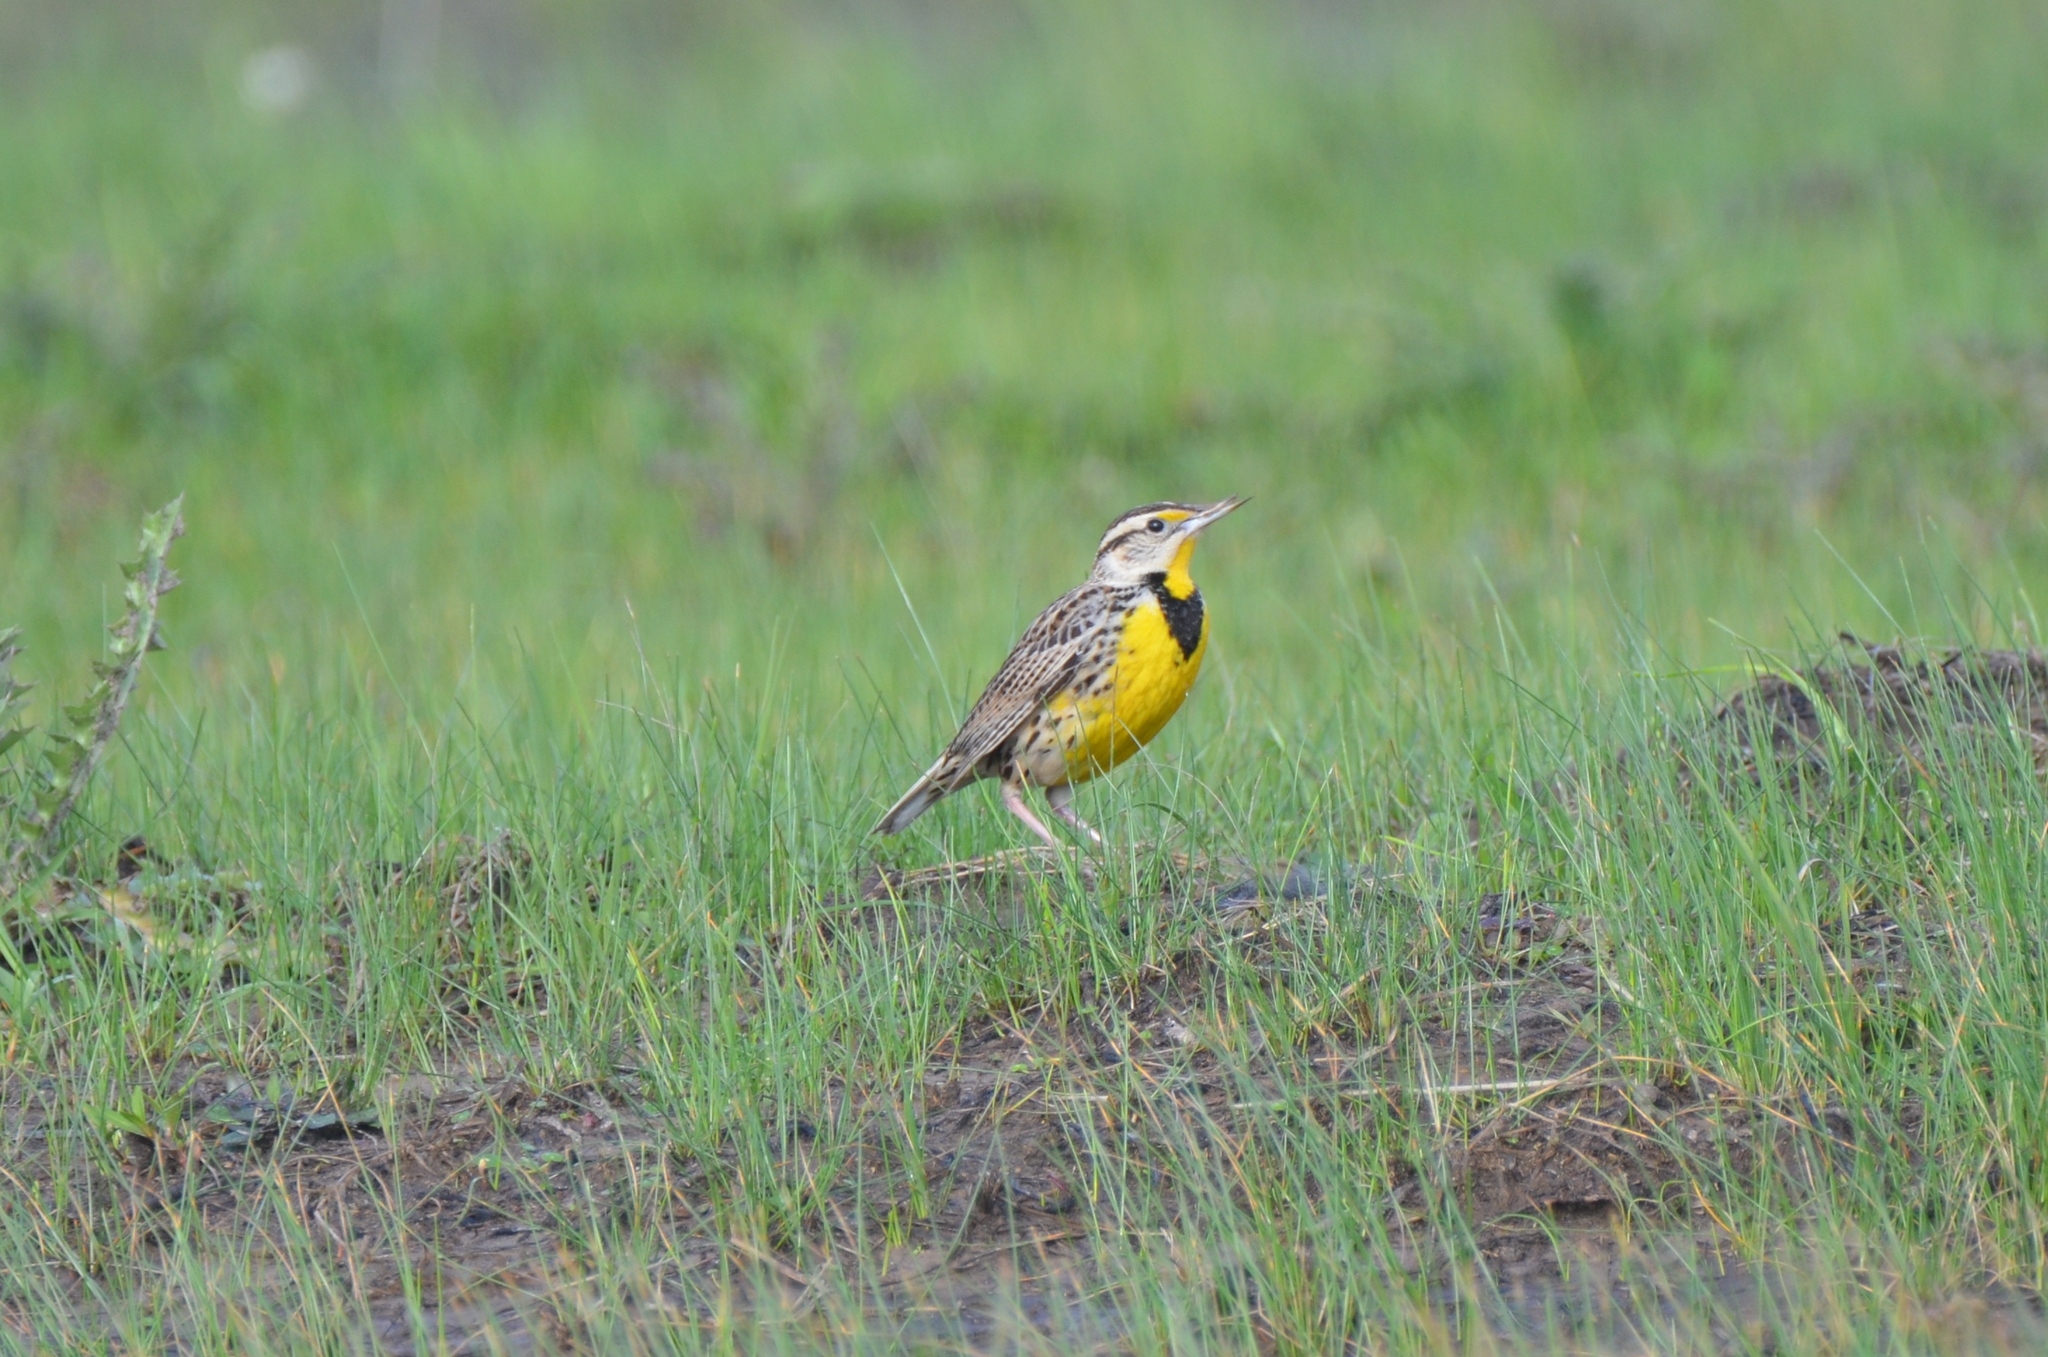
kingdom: Animalia
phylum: Chordata
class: Aves
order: Passeriformes
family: Icteridae
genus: Sturnella
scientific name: Sturnella magna
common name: Eastern meadowlark
